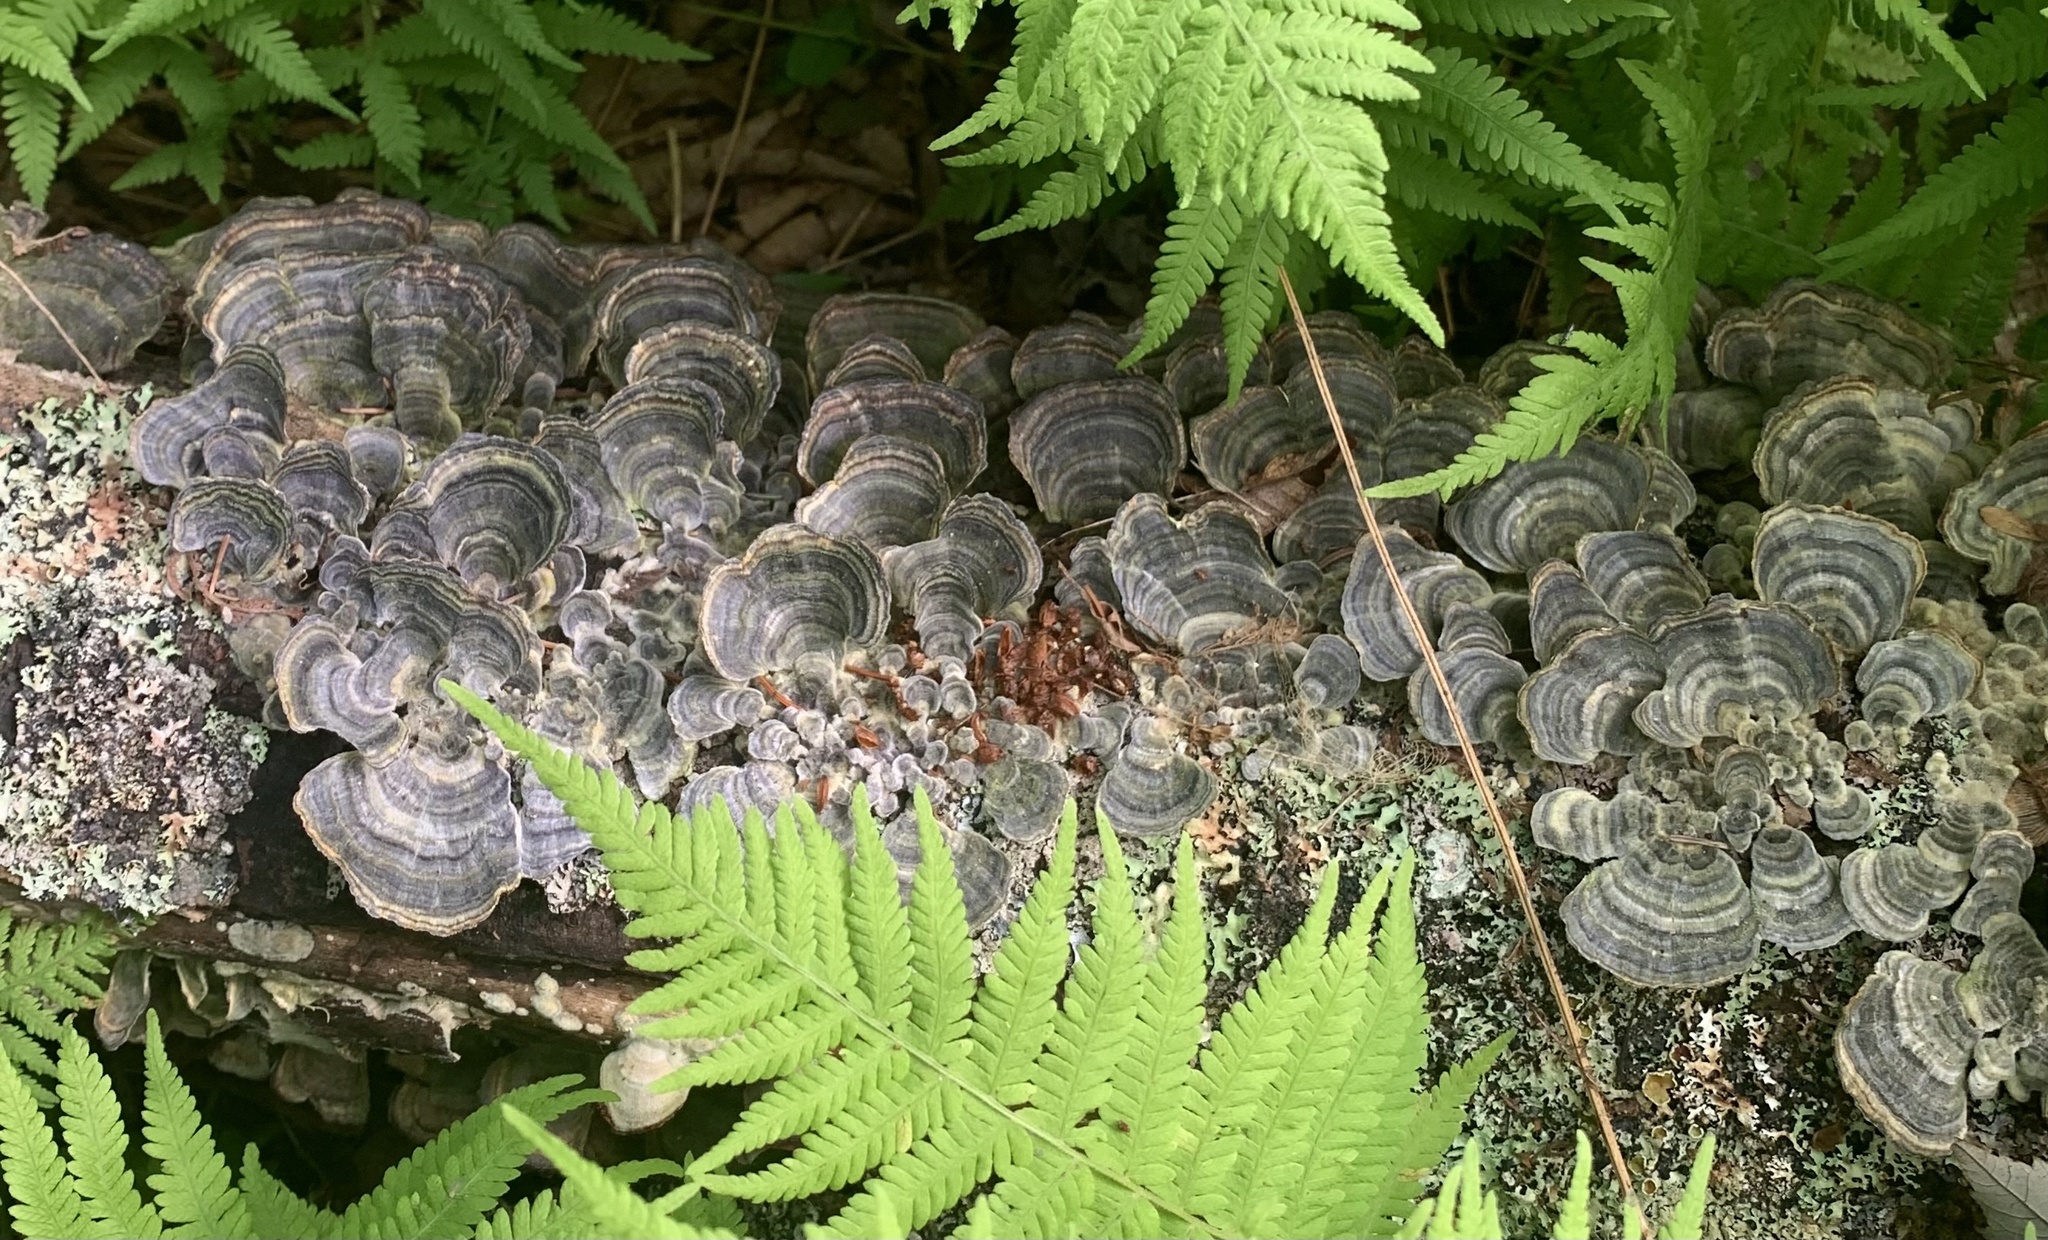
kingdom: Fungi
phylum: Basidiomycota
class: Agaricomycetes
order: Polyporales
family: Polyporaceae
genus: Trametes
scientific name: Trametes versicolor
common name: Turkeytail
